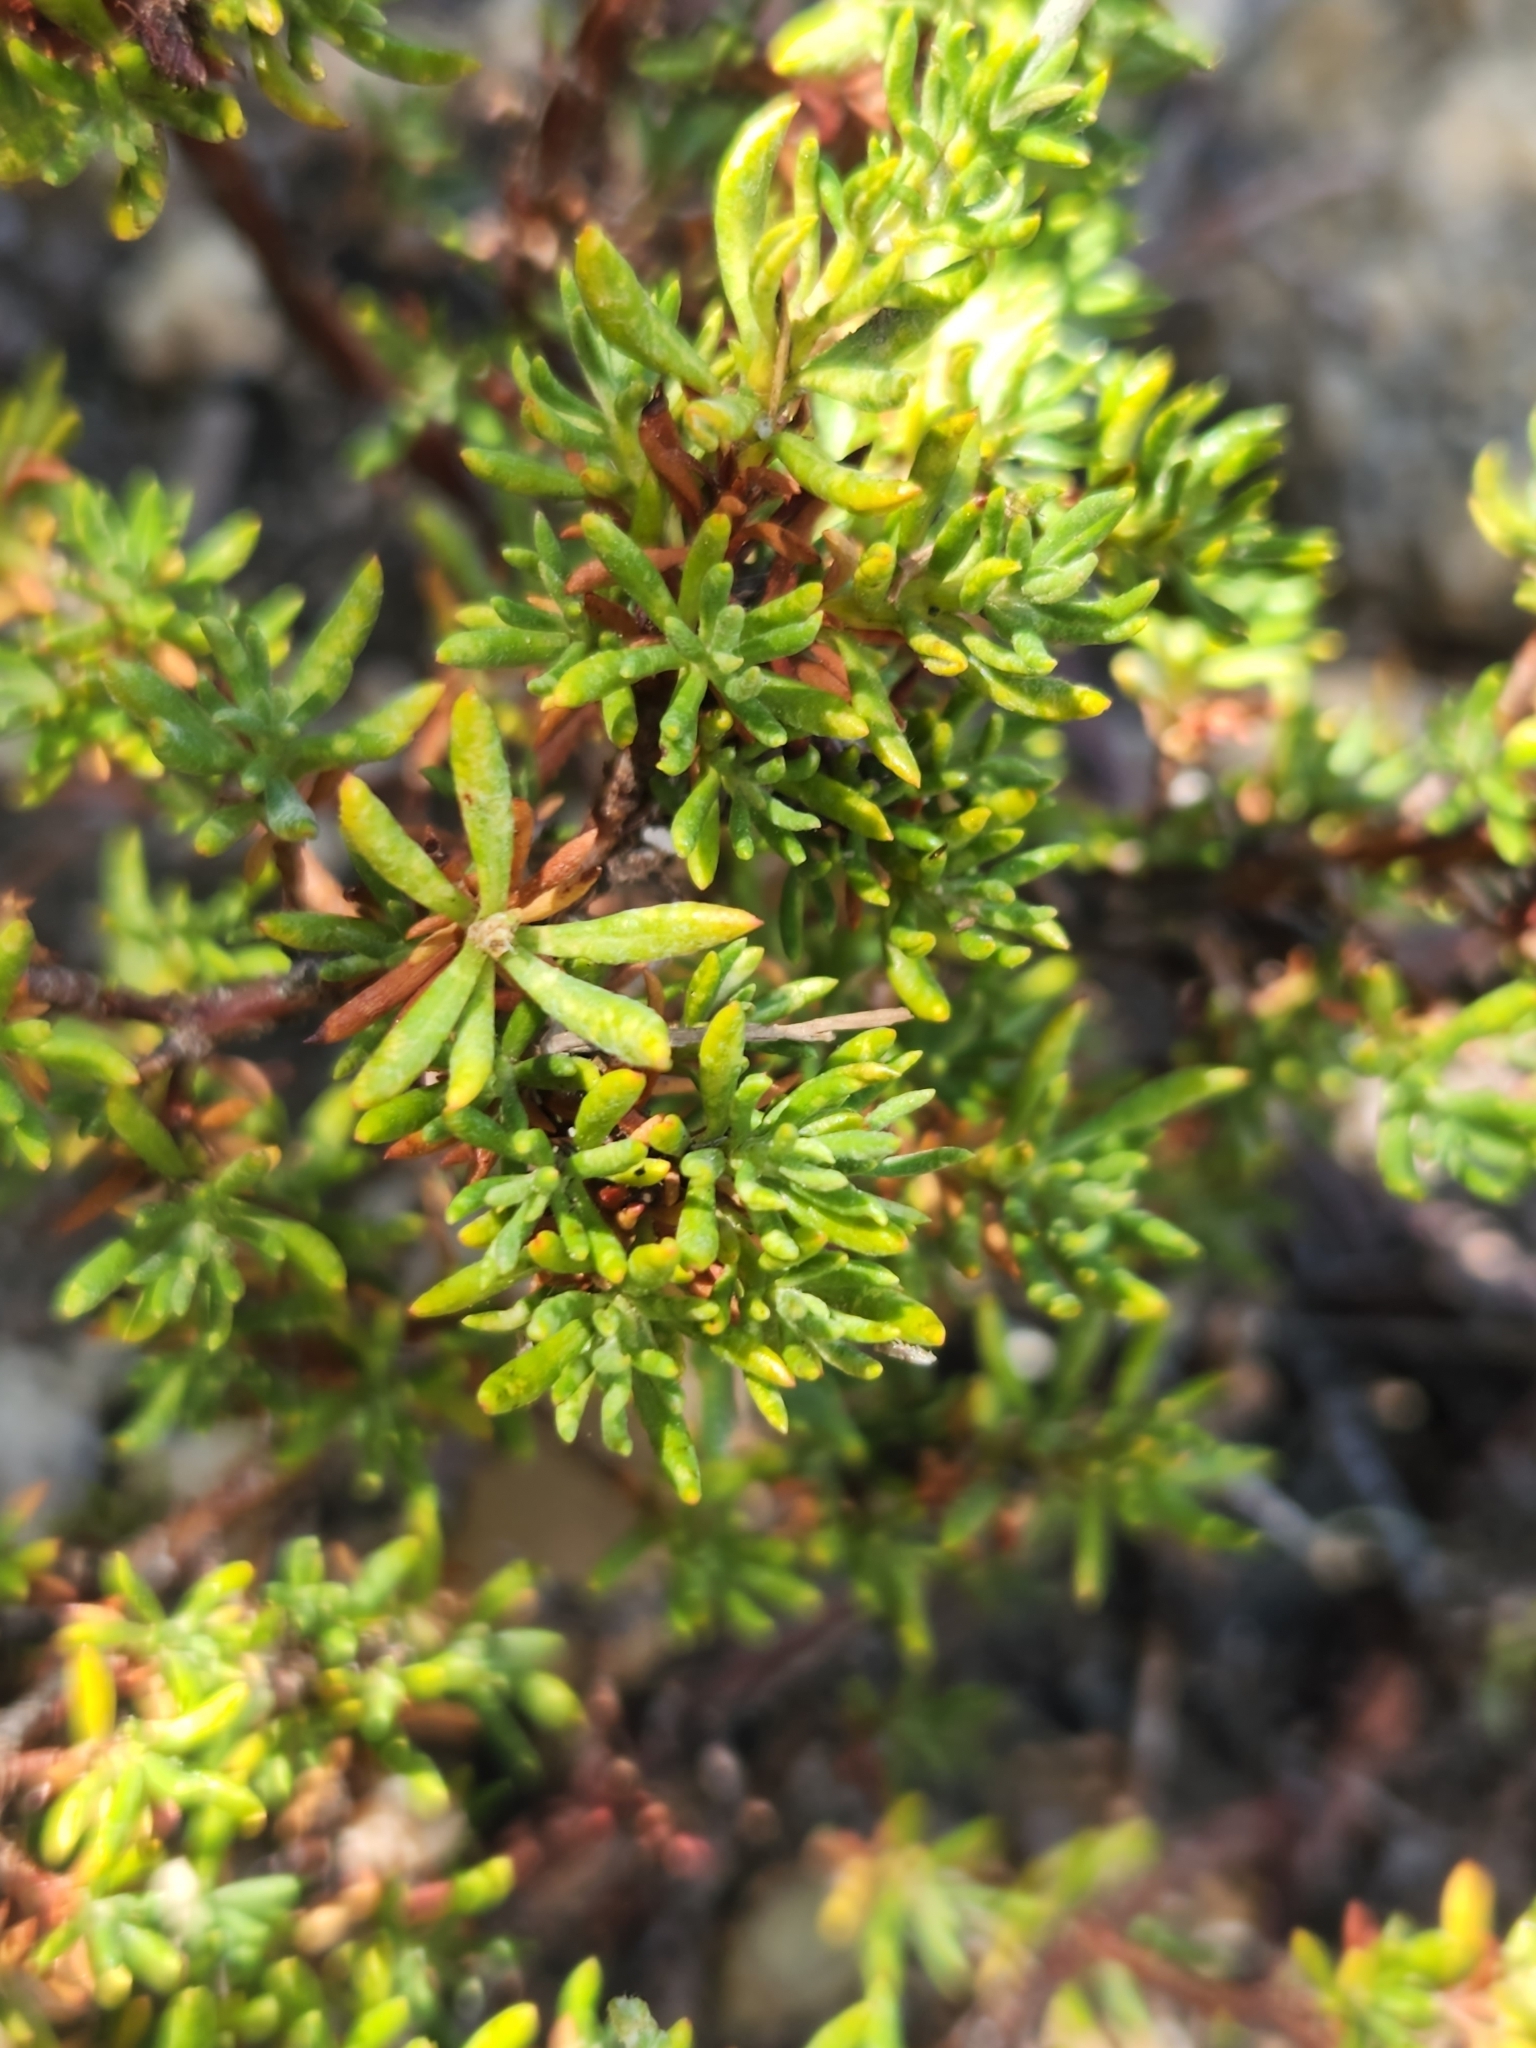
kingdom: Plantae
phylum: Tracheophyta
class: Magnoliopsida
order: Caryophyllales
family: Polygonaceae
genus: Eriogonum
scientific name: Eriogonum wrightii
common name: Bastard-sage
